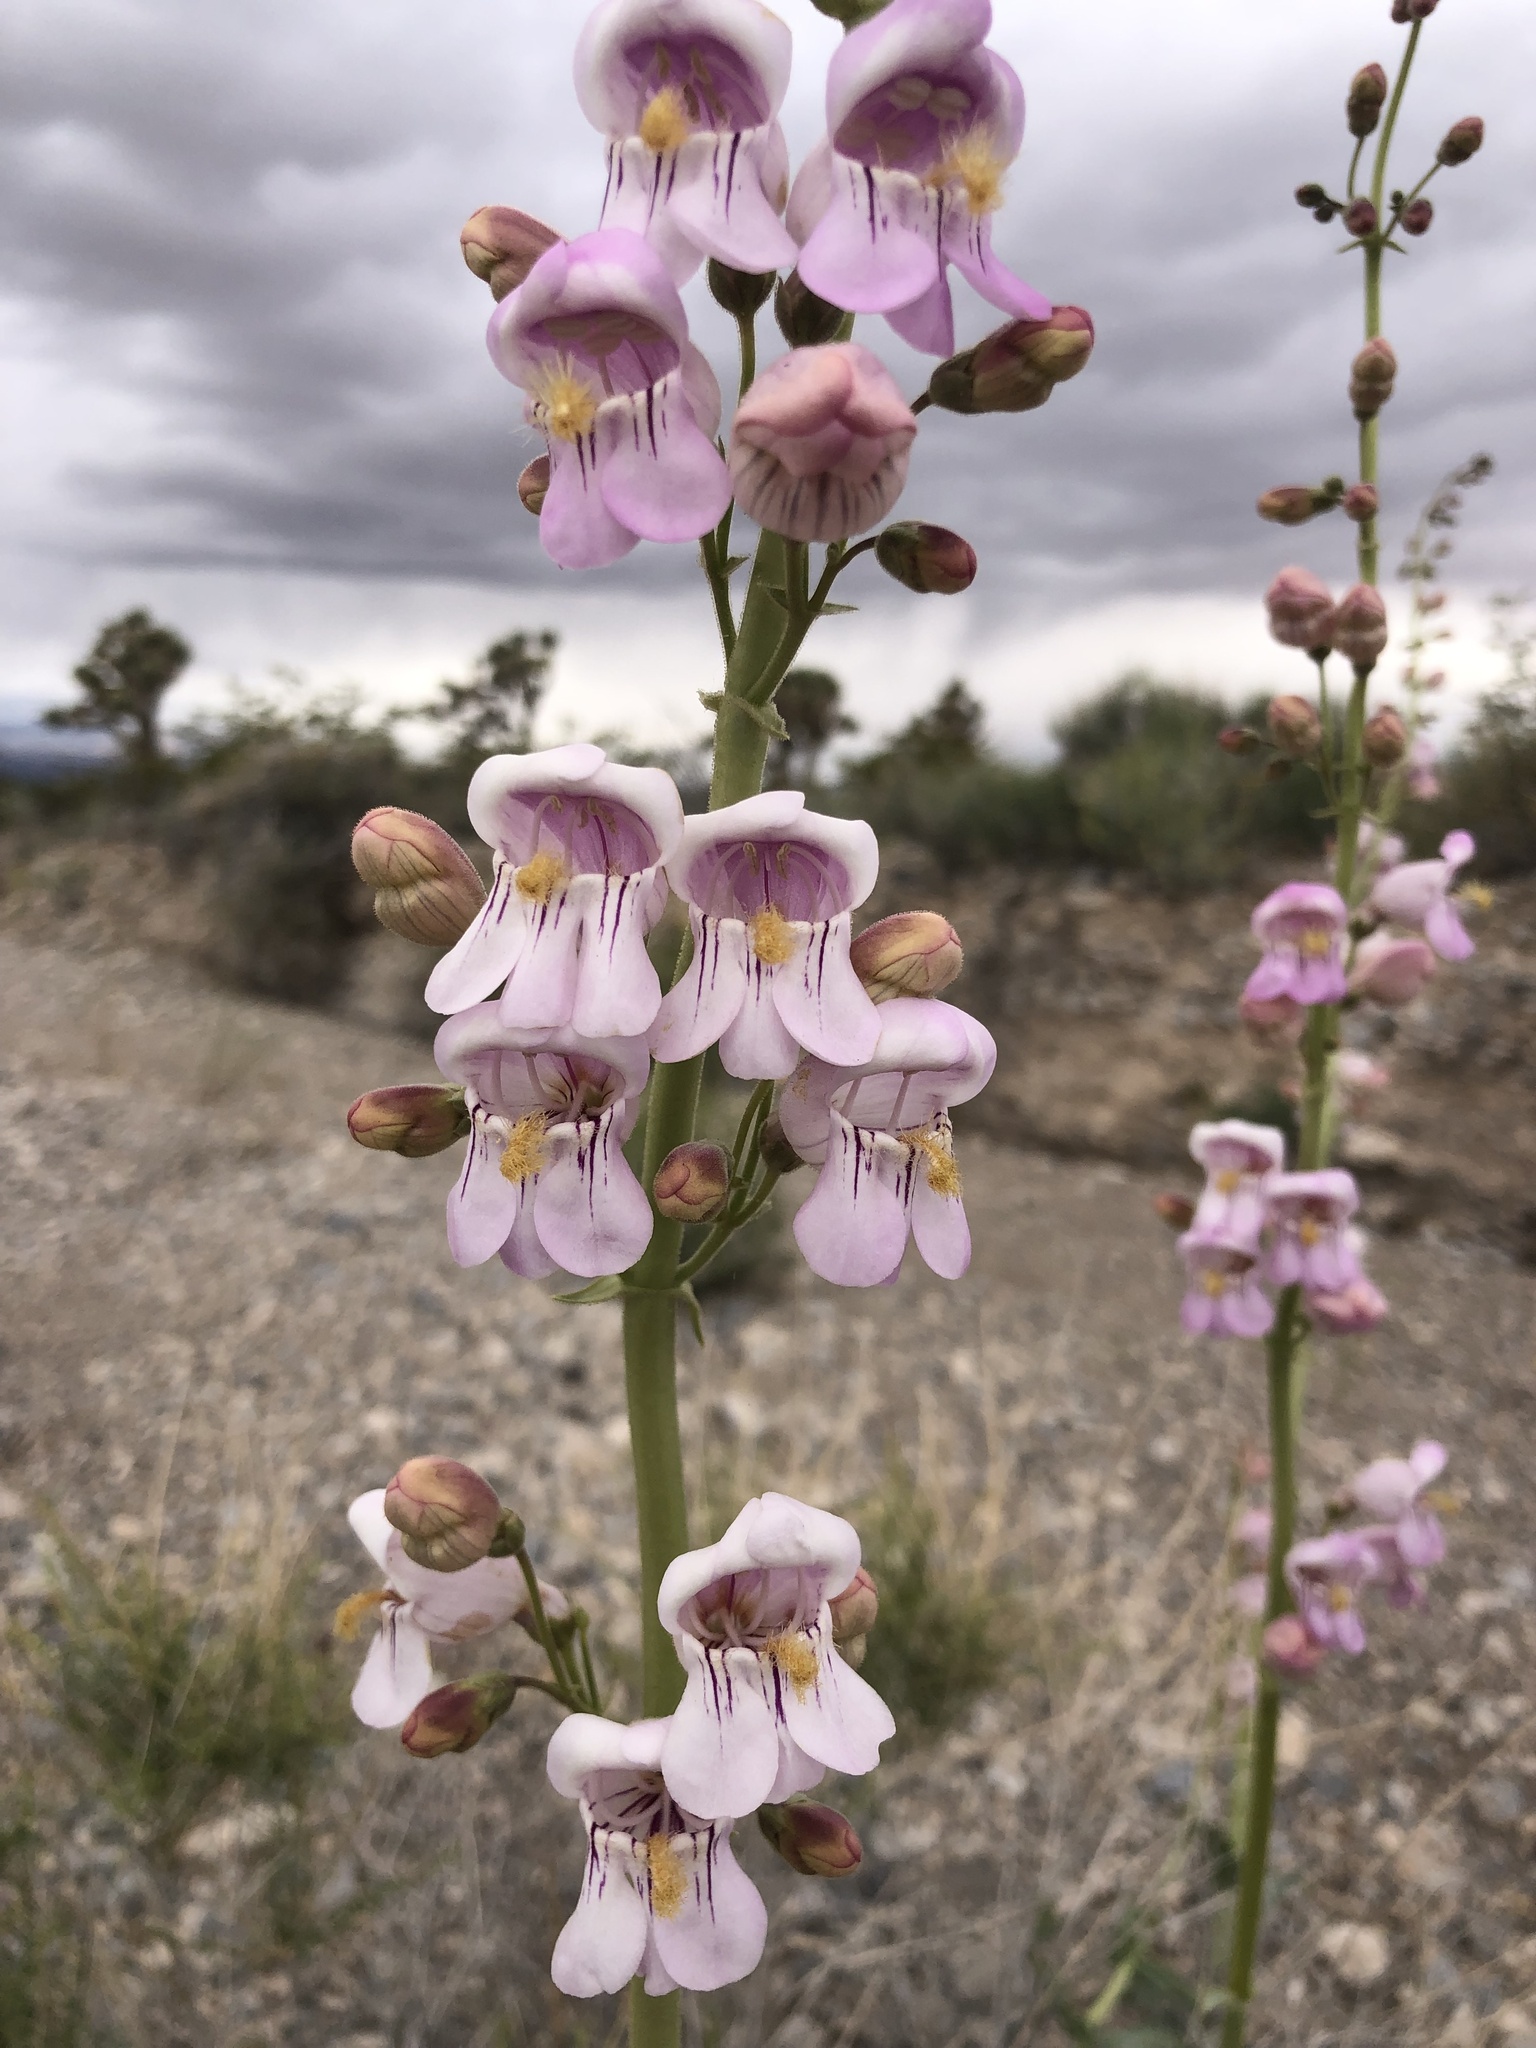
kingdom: Plantae
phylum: Tracheophyta
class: Magnoliopsida
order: Lamiales
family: Plantaginaceae
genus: Penstemon
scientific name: Penstemon palmeri
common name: Palmer penstemon
